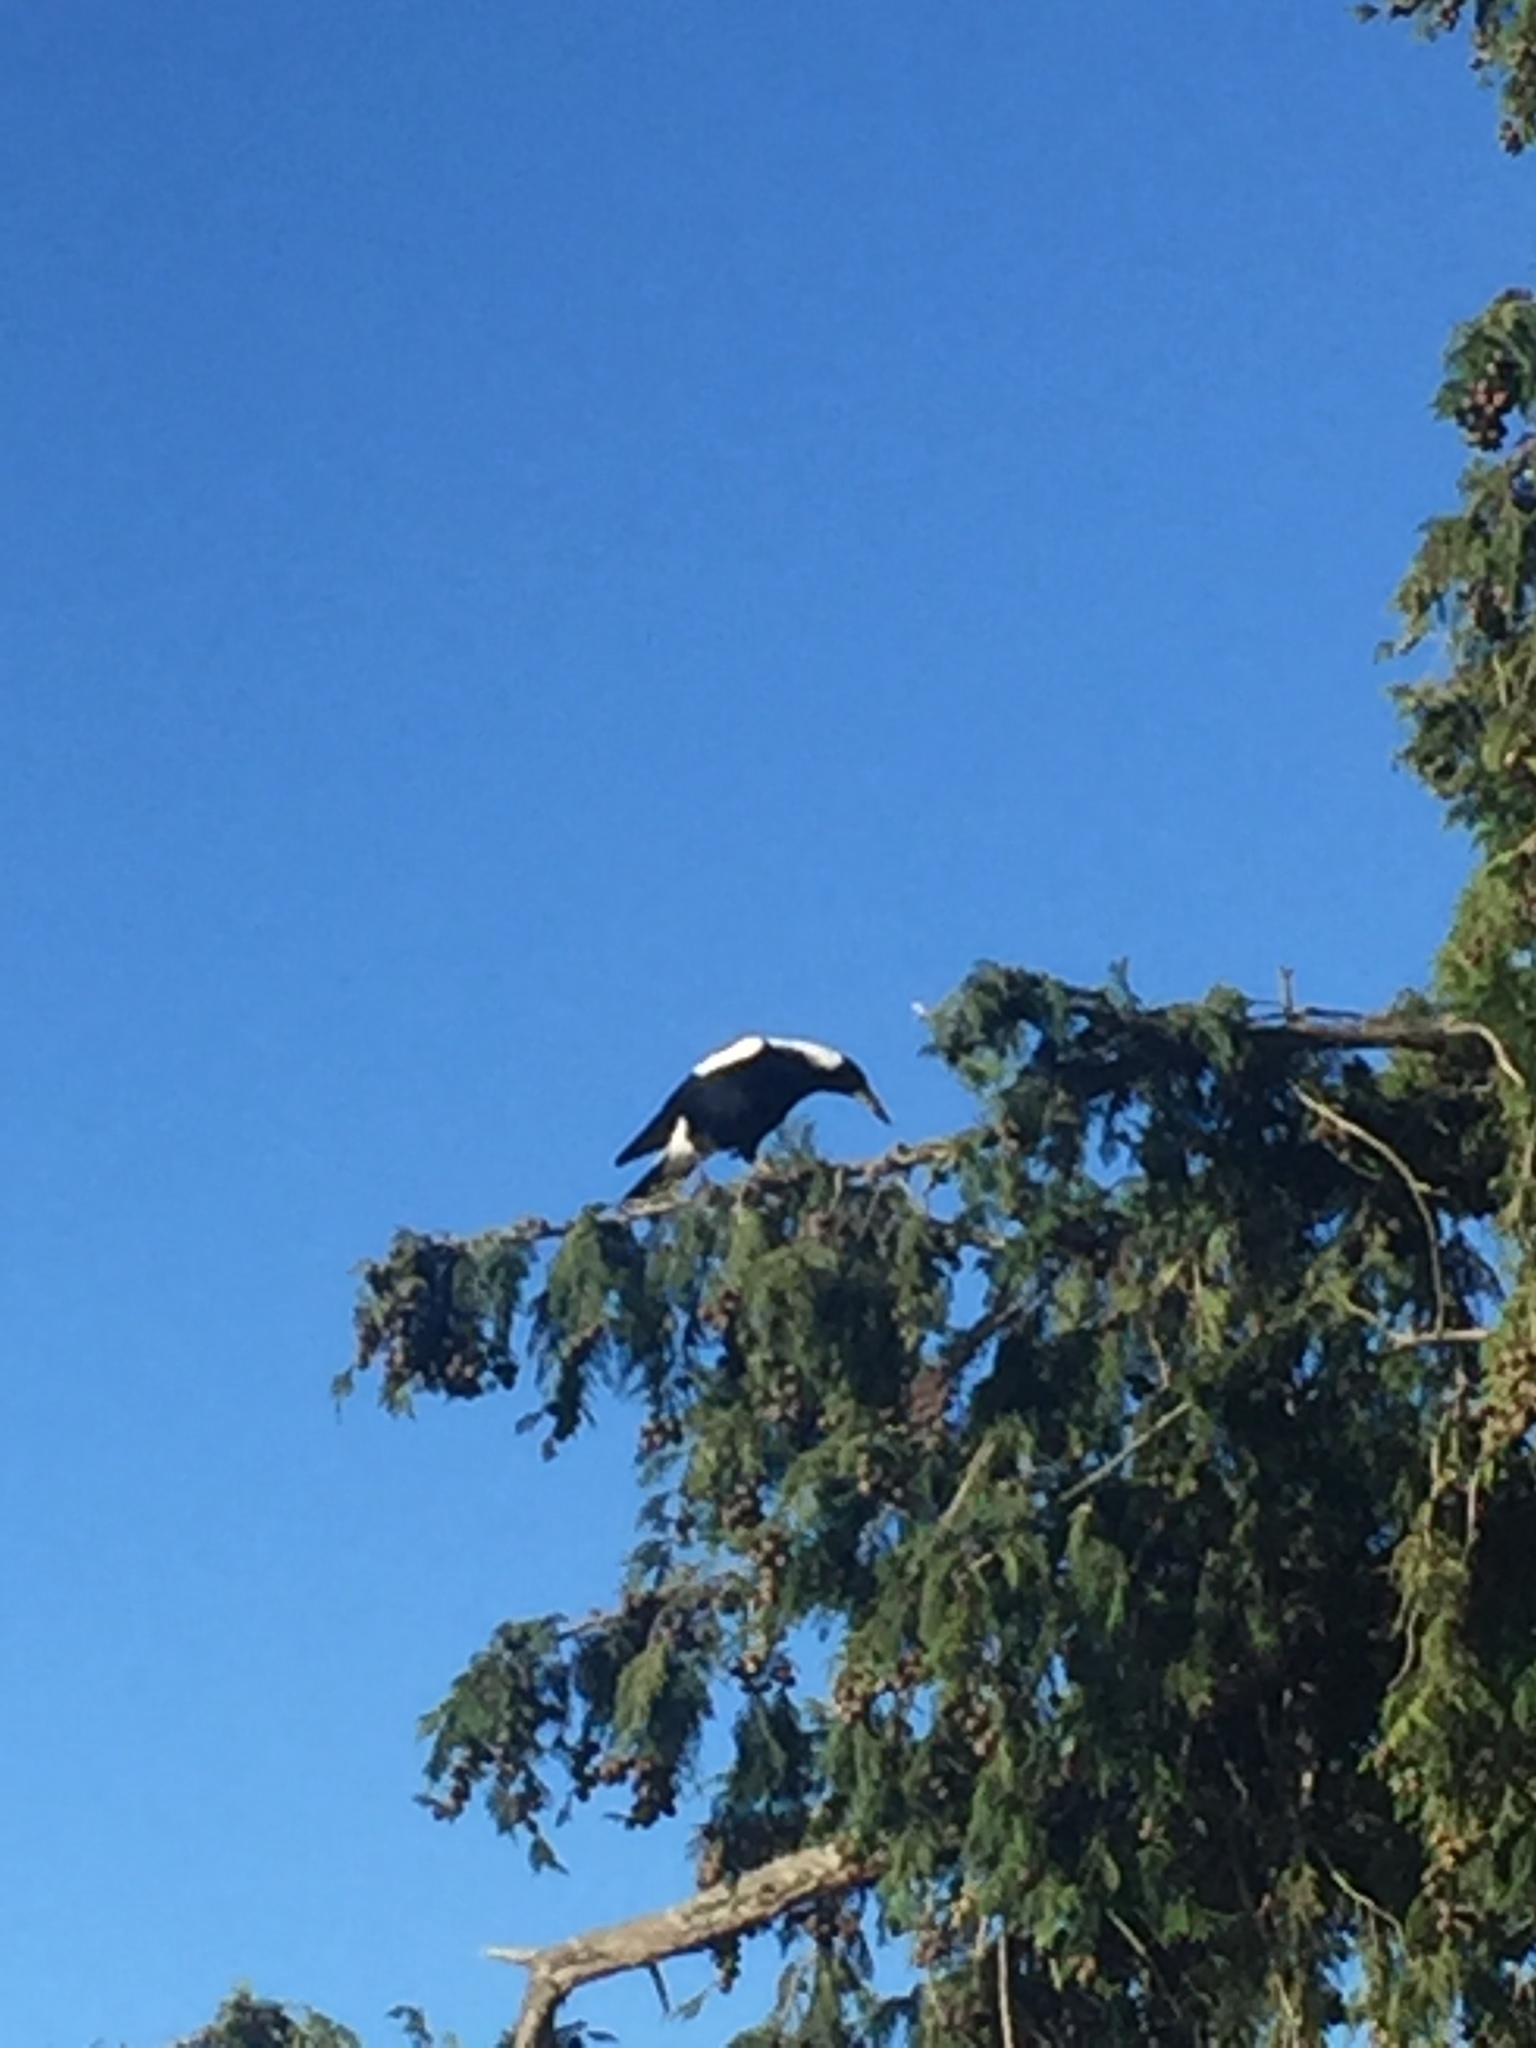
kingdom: Animalia
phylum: Chordata
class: Aves
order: Passeriformes
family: Cracticidae
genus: Gymnorhina
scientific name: Gymnorhina tibicen
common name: Australian magpie
